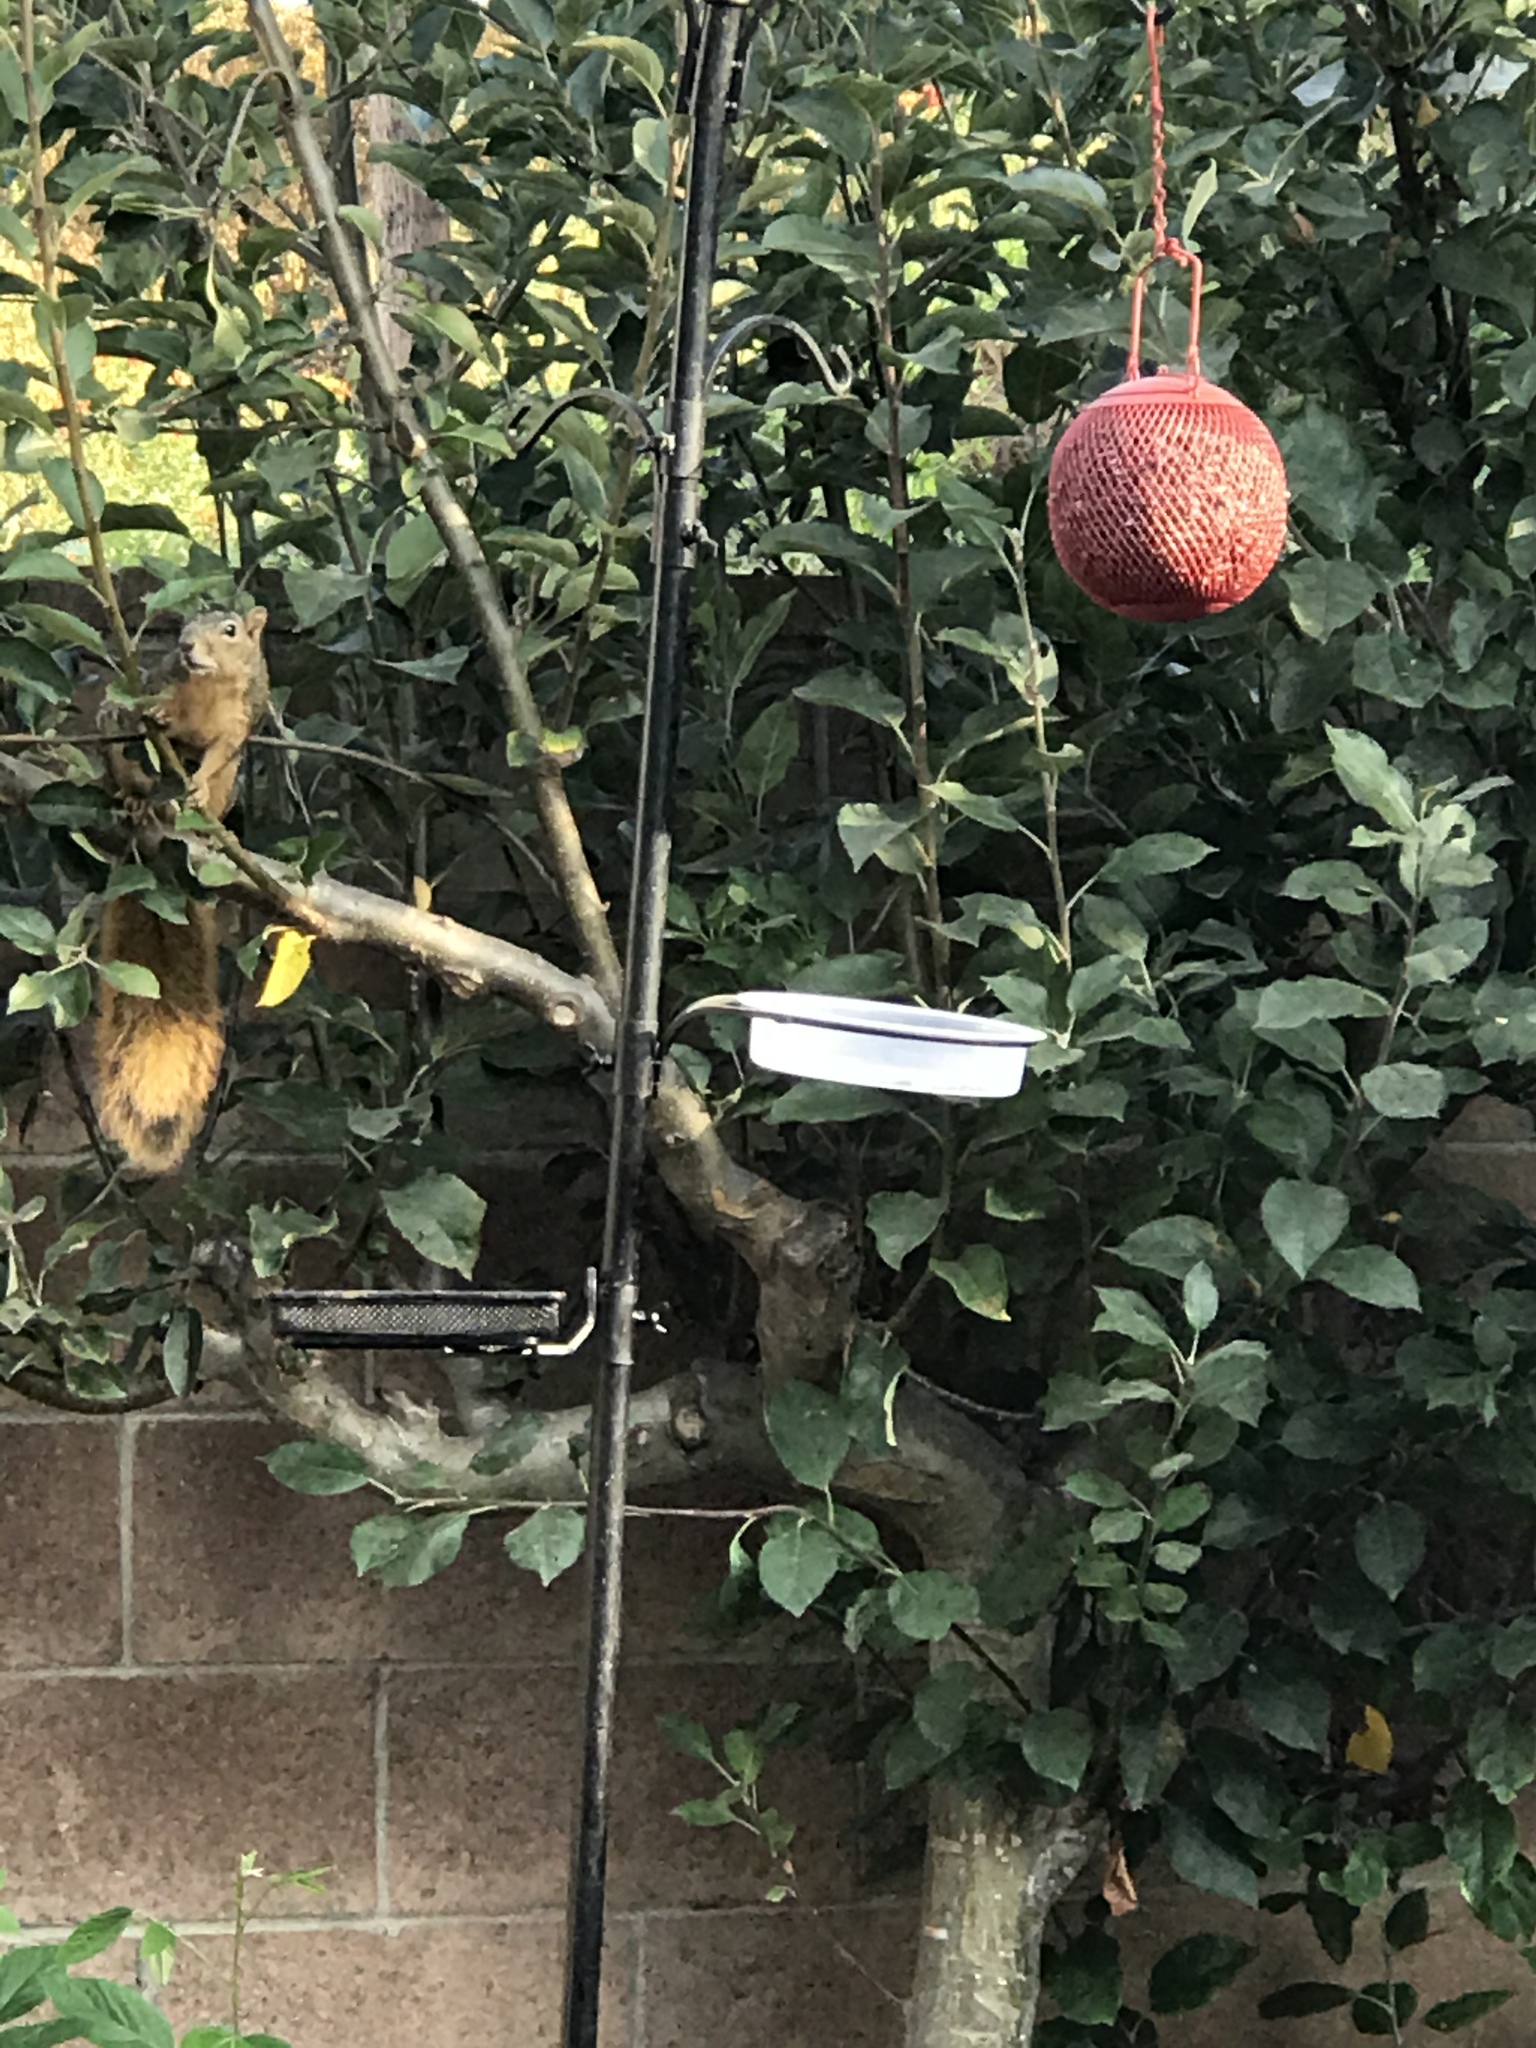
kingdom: Animalia
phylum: Chordata
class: Mammalia
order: Rodentia
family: Sciuridae
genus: Sciurus
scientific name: Sciurus niger
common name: Fox squirrel
